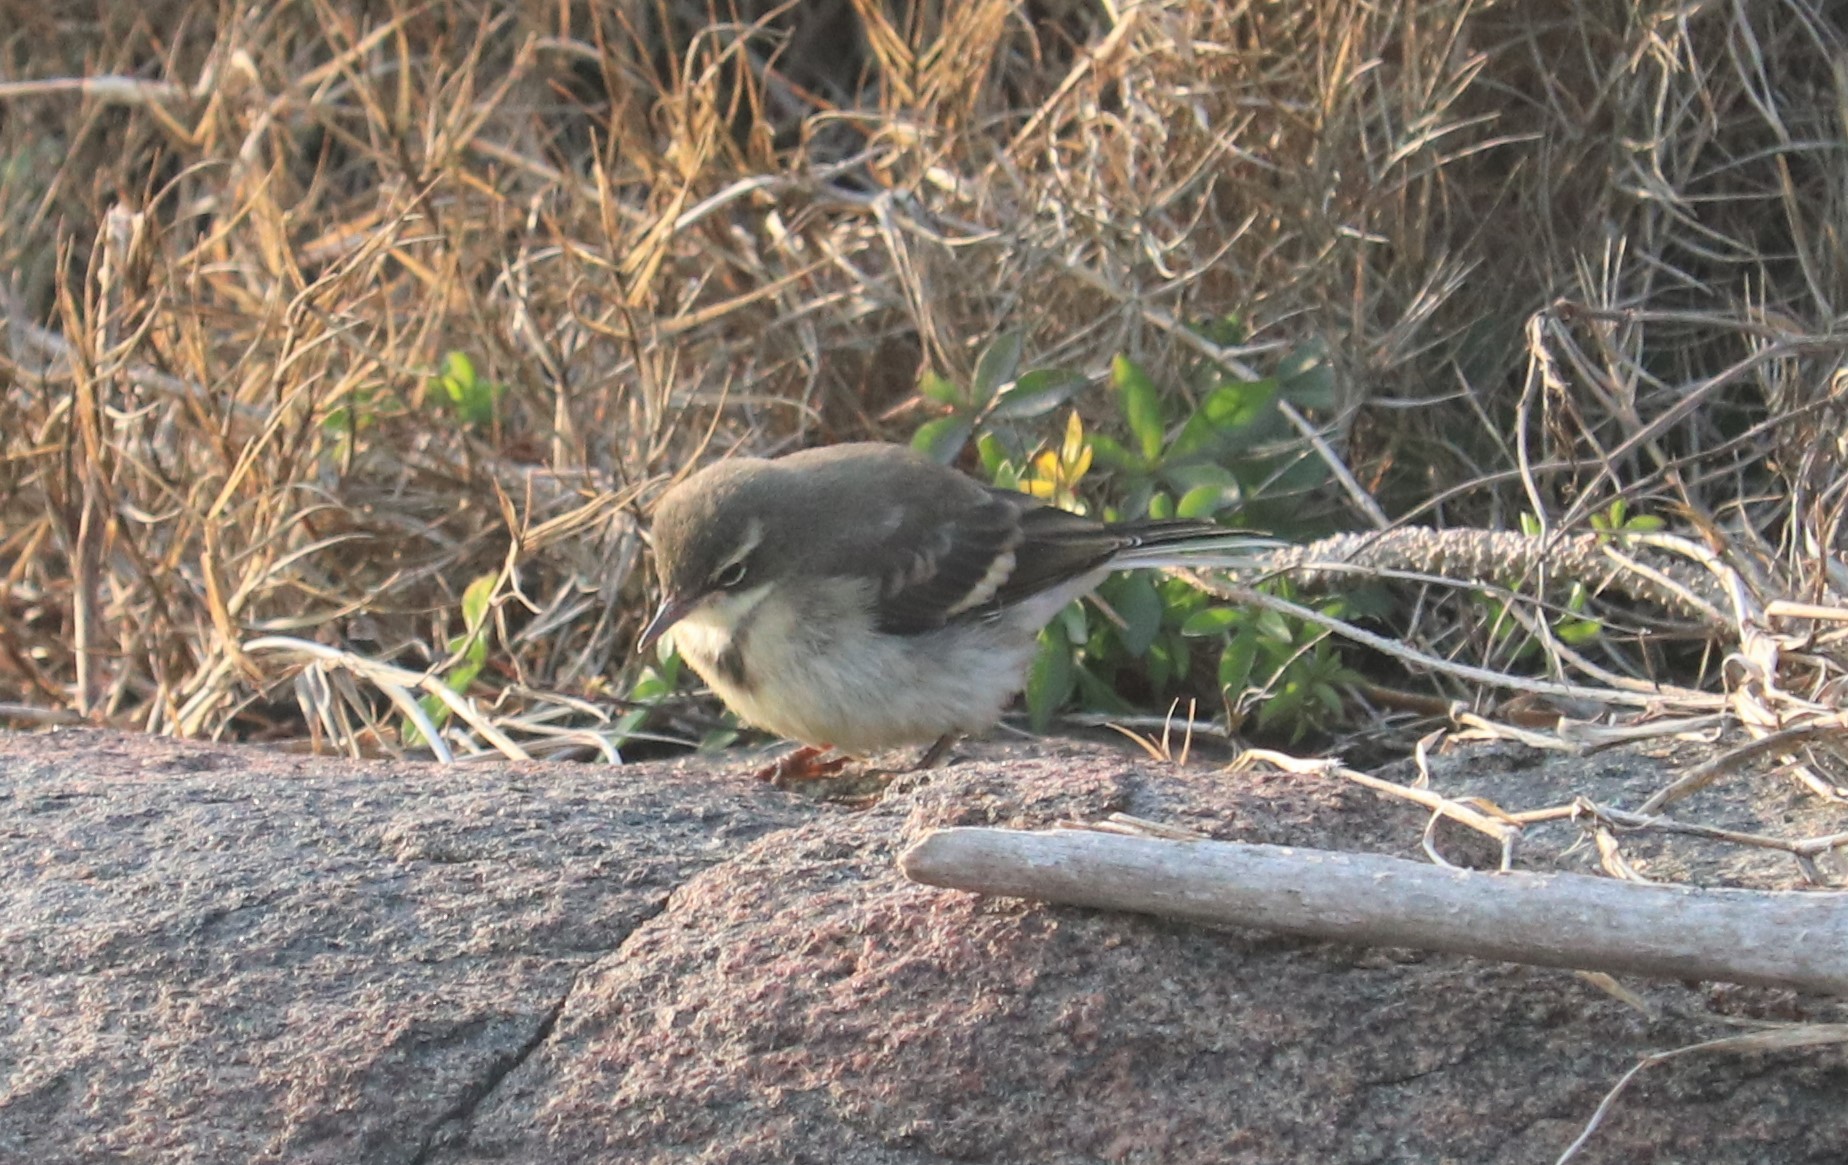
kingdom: Animalia
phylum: Chordata
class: Aves
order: Passeriformes
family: Motacillidae
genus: Motacilla
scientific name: Motacilla capensis
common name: Cape wagtail
